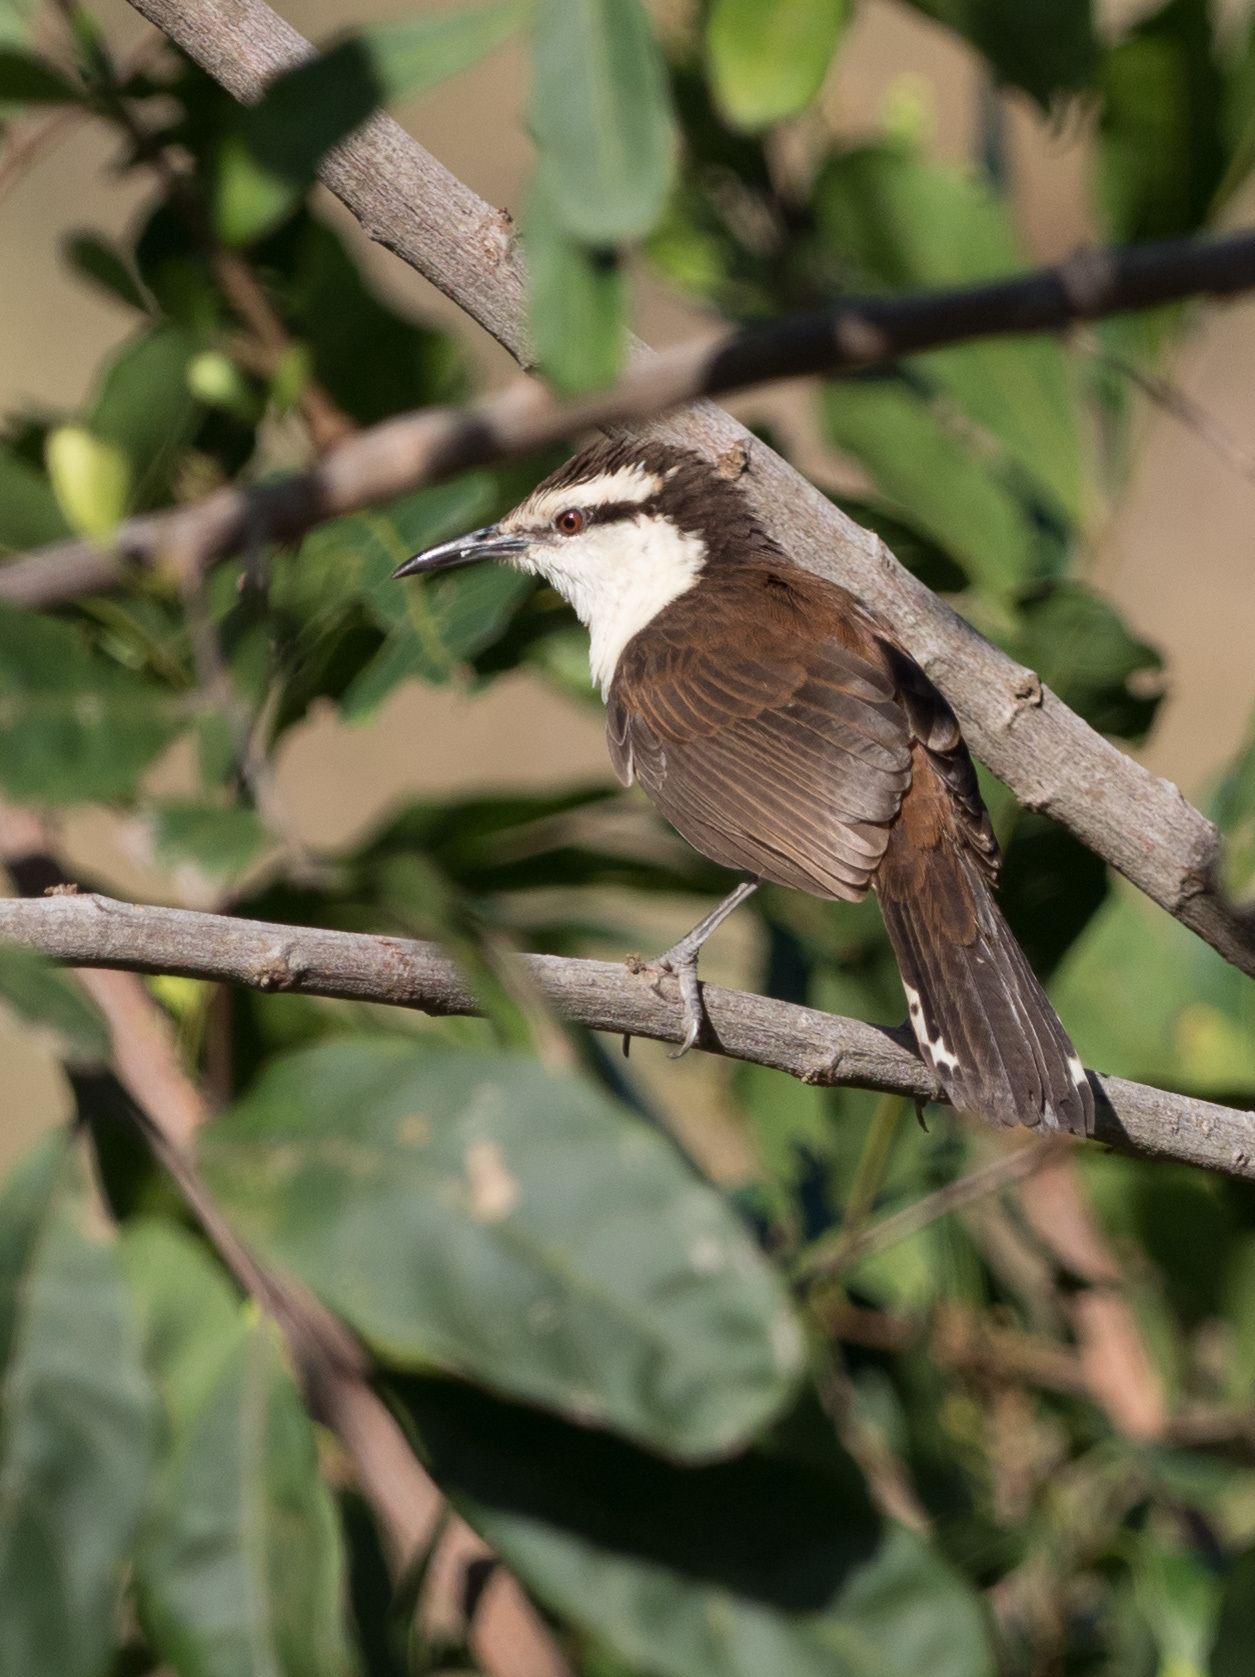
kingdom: Animalia
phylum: Chordata
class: Aves
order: Passeriformes
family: Troglodytidae
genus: Campylorhynchus
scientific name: Campylorhynchus griseus
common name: Bicolored wren
